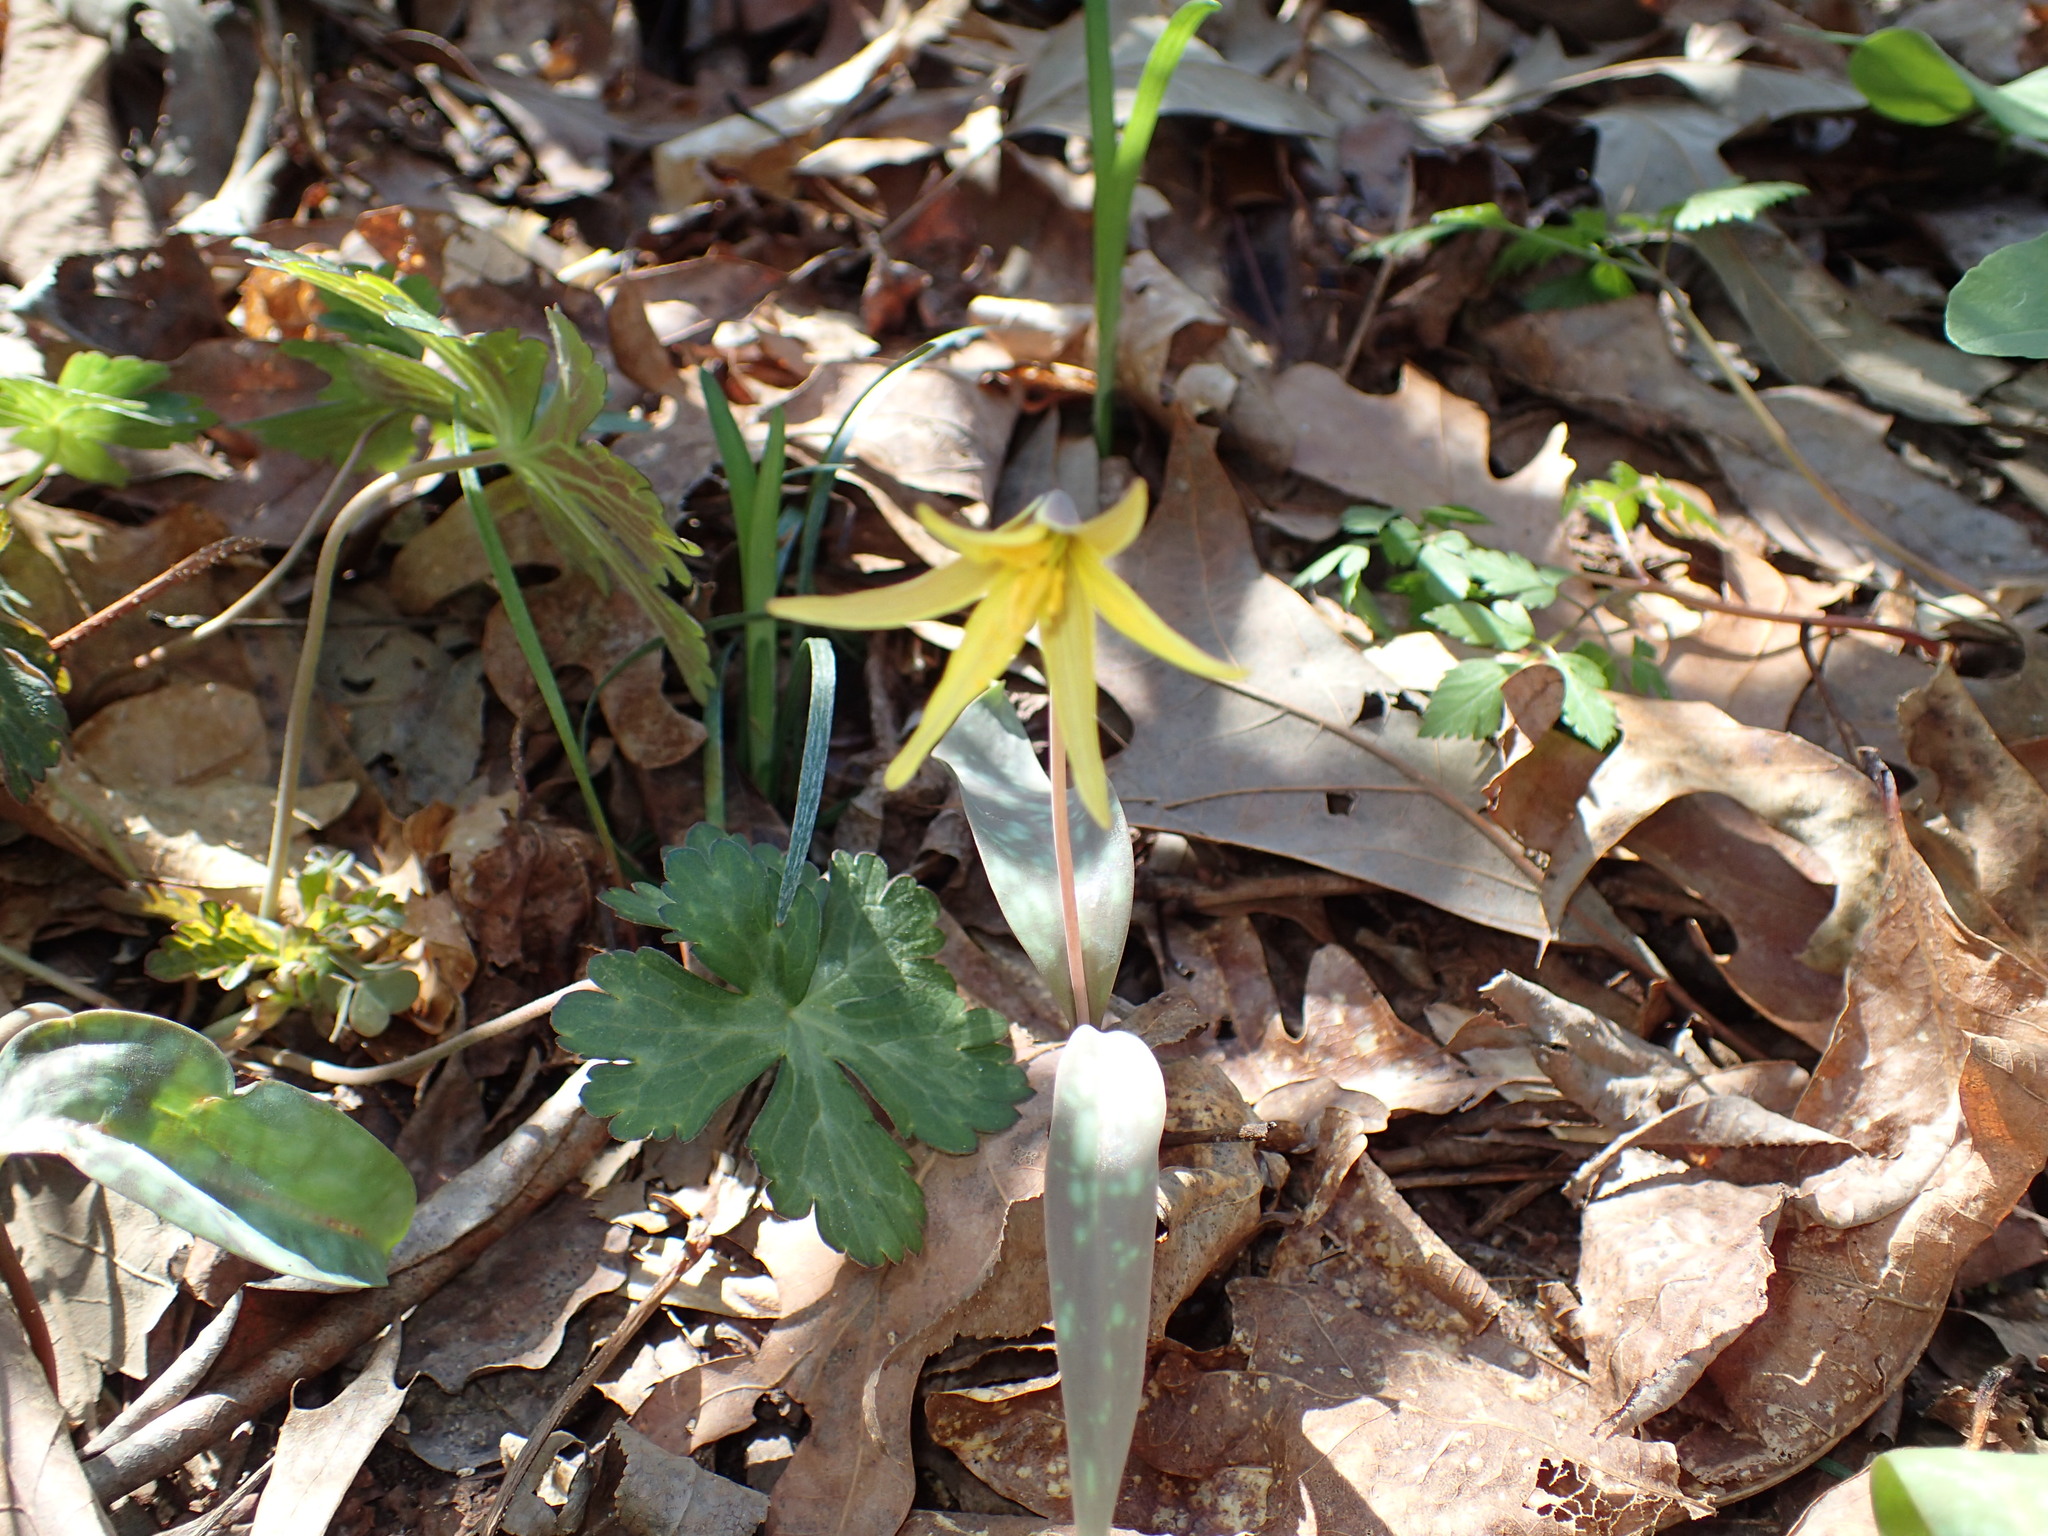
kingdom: Plantae
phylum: Tracheophyta
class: Liliopsida
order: Liliales
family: Liliaceae
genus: Erythronium
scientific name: Erythronium americanum
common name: Yellow adder's-tongue
